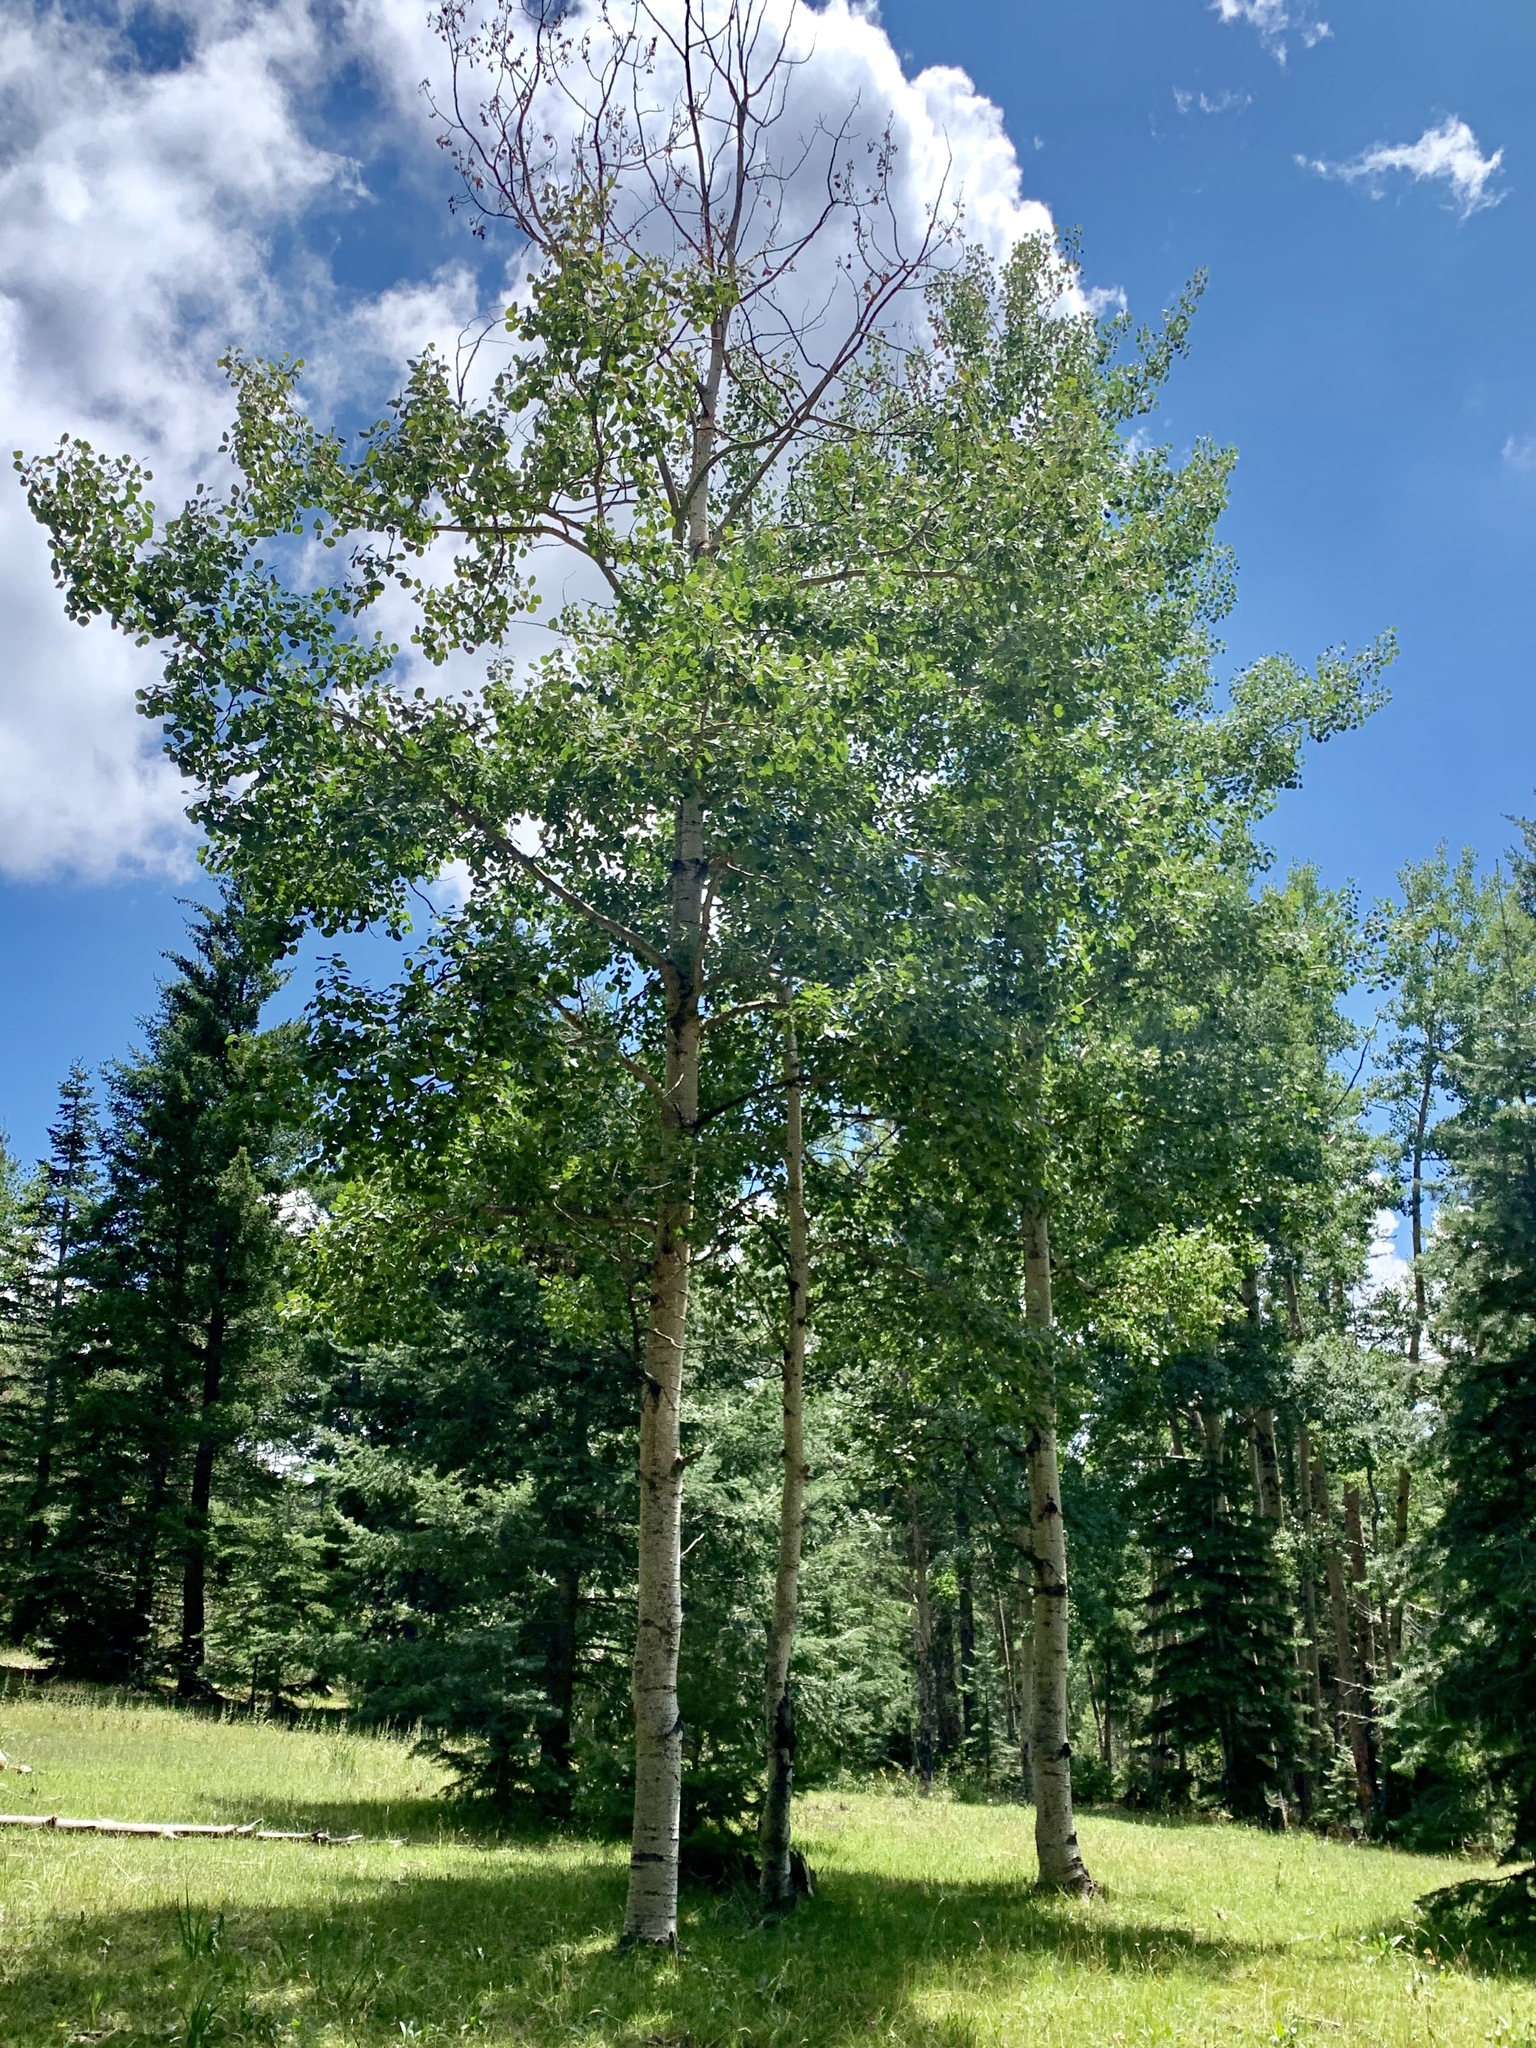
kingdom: Plantae
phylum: Tracheophyta
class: Magnoliopsida
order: Malpighiales
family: Salicaceae
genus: Populus
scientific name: Populus tremuloides
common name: Quaking aspen
